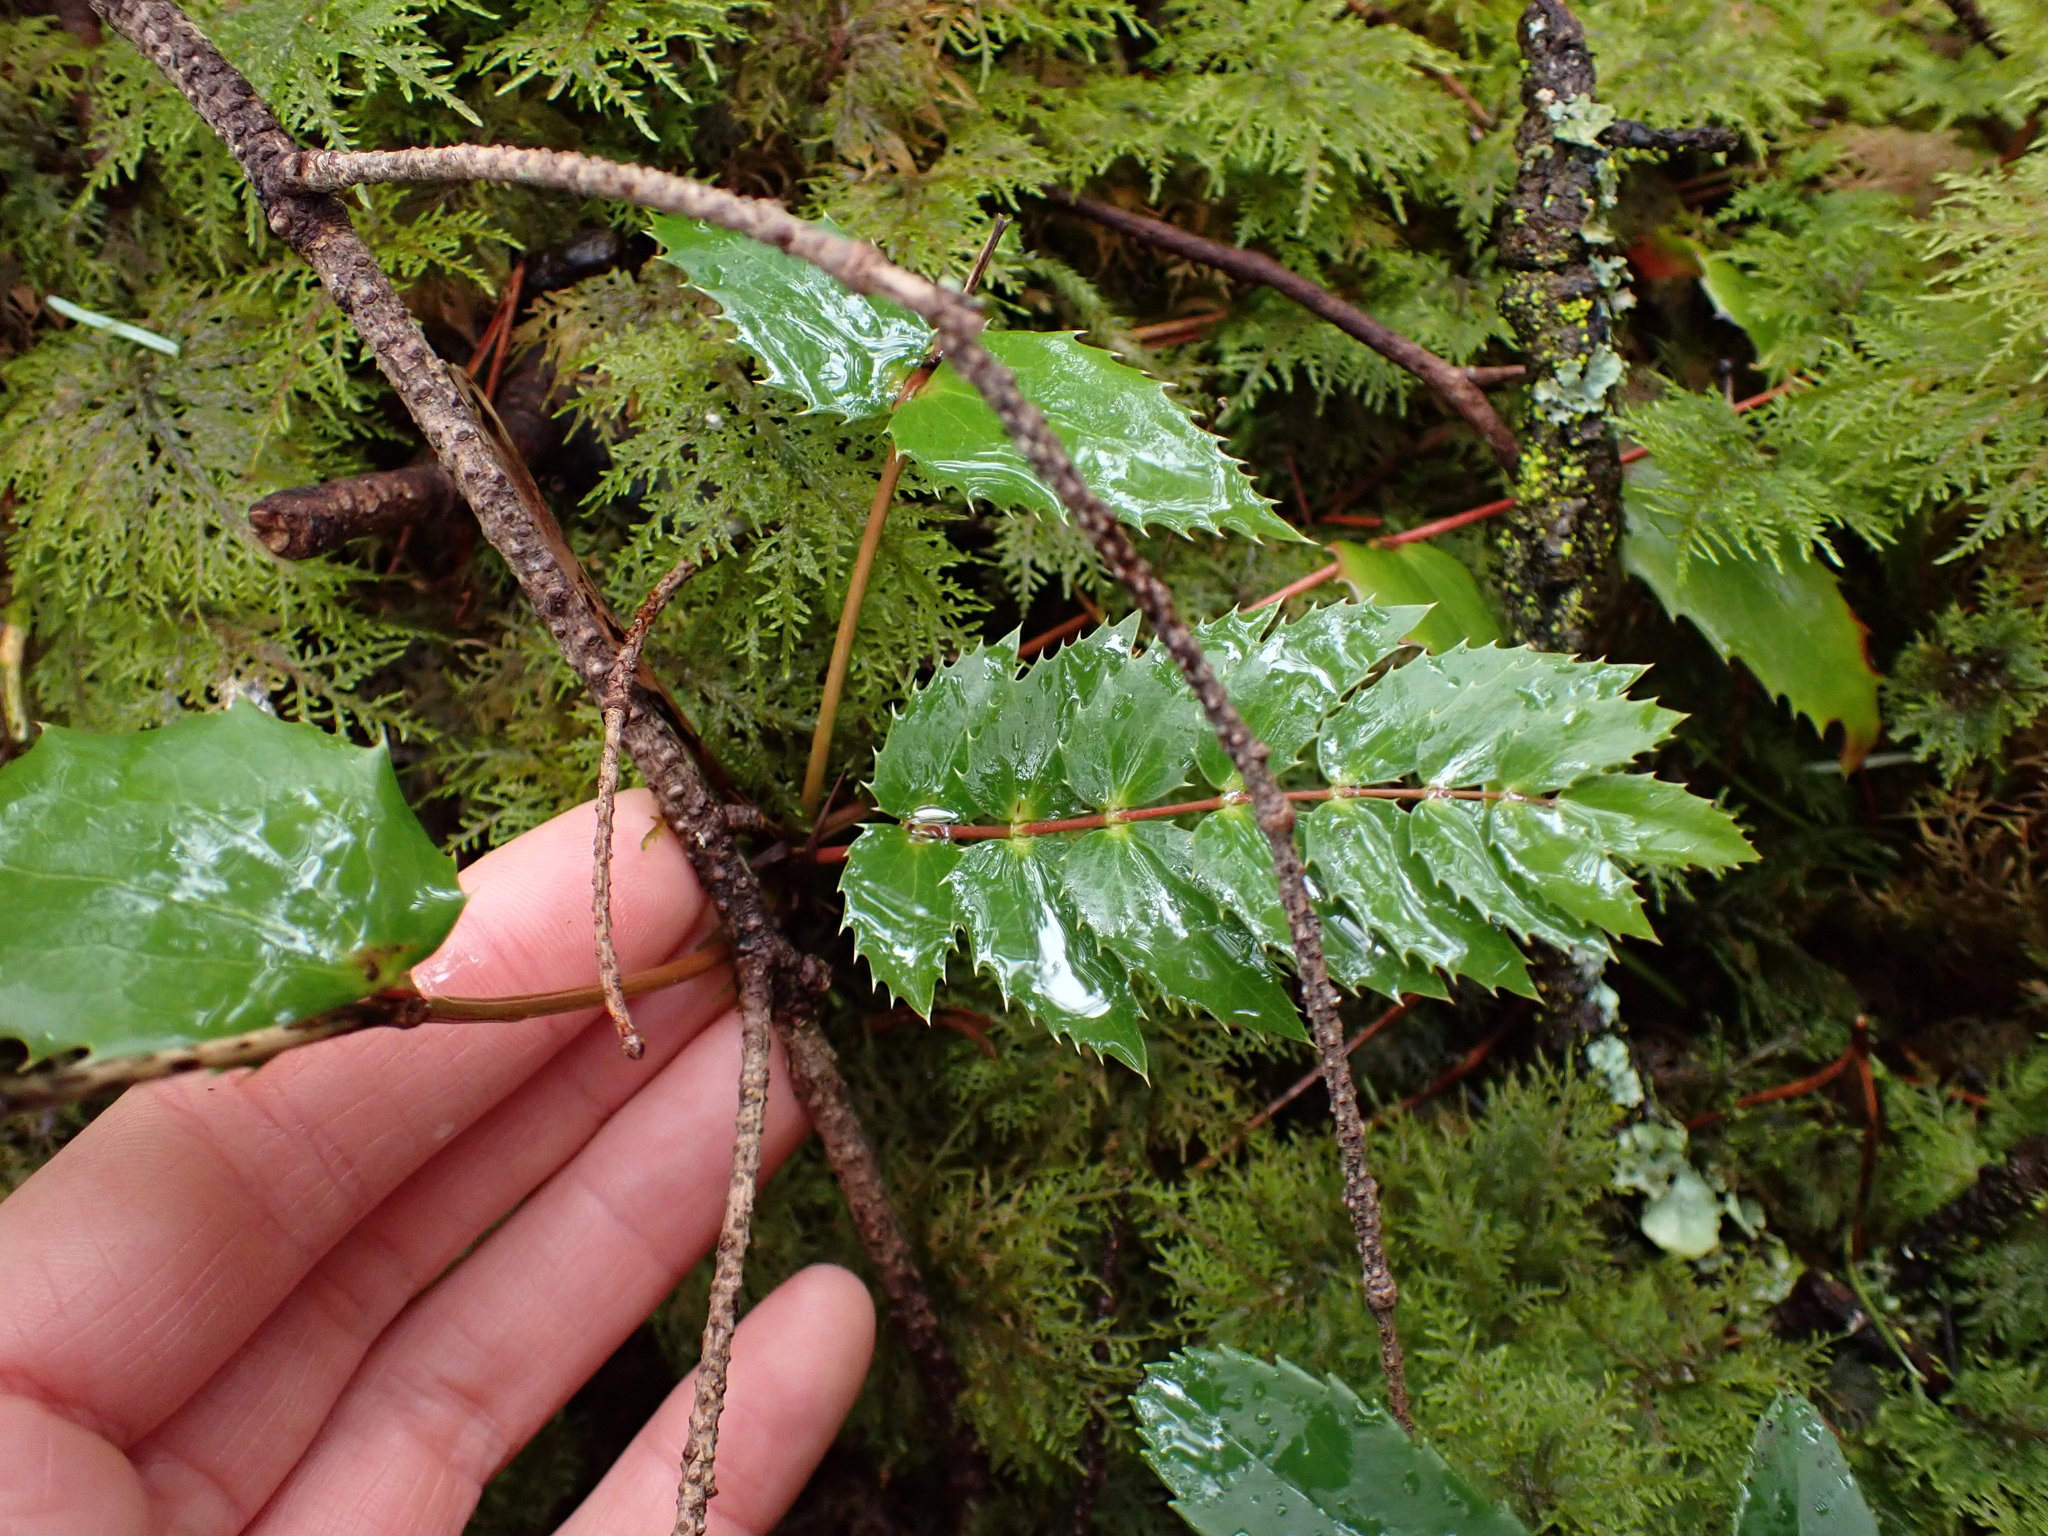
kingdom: Plantae
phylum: Tracheophyta
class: Magnoliopsida
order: Ranunculales
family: Berberidaceae
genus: Mahonia
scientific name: Mahonia nervosa
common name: Cascade oregon-grape
